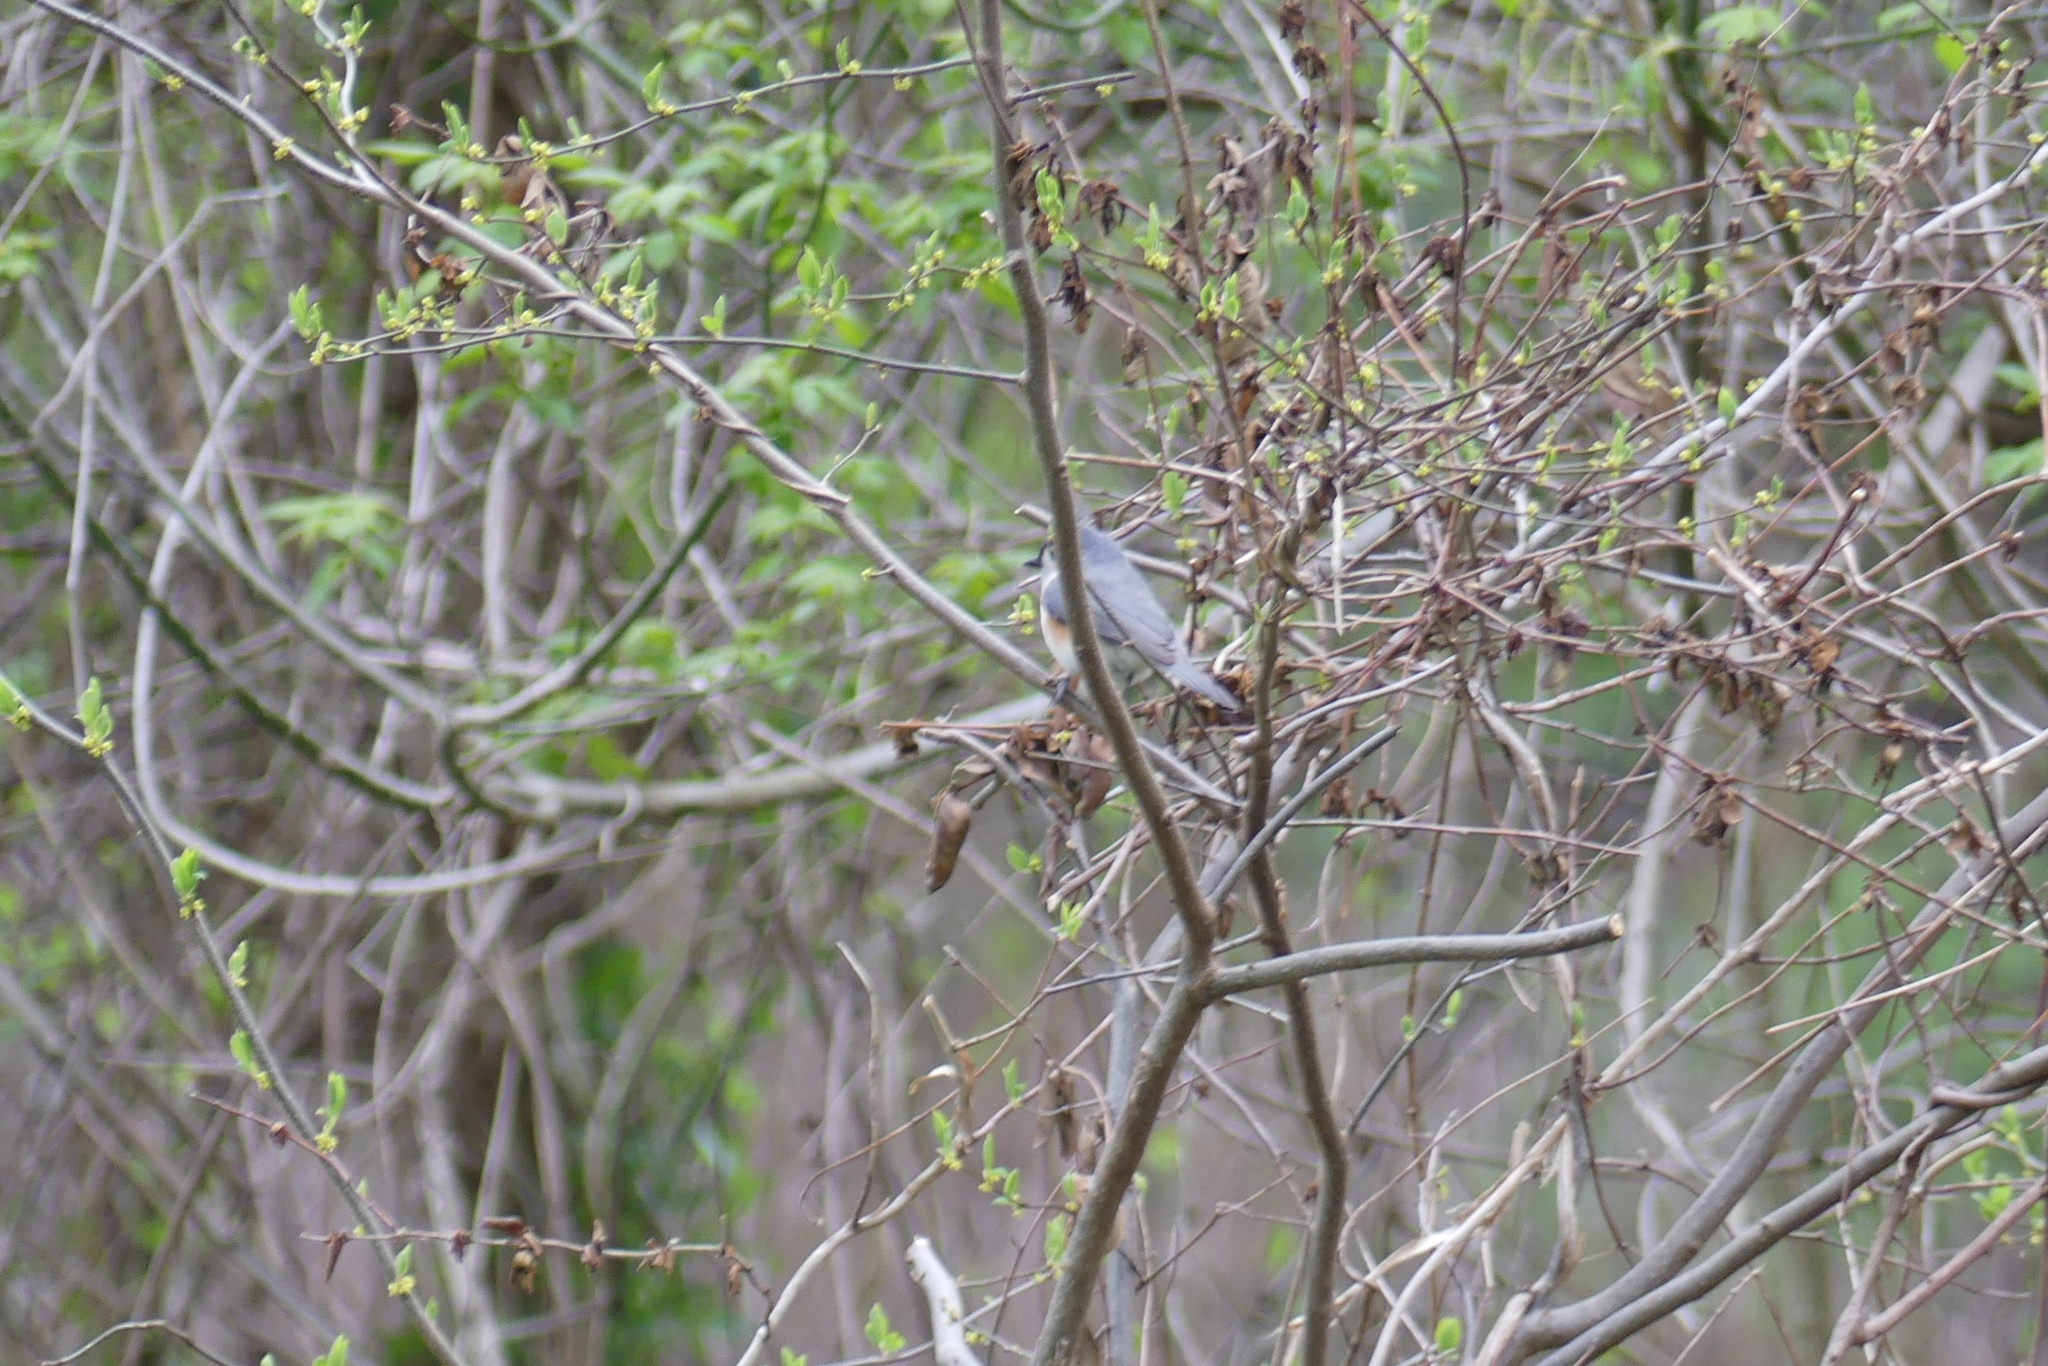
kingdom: Animalia
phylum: Chordata
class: Aves
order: Passeriformes
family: Paridae
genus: Baeolophus
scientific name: Baeolophus bicolor
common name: Tufted titmouse
